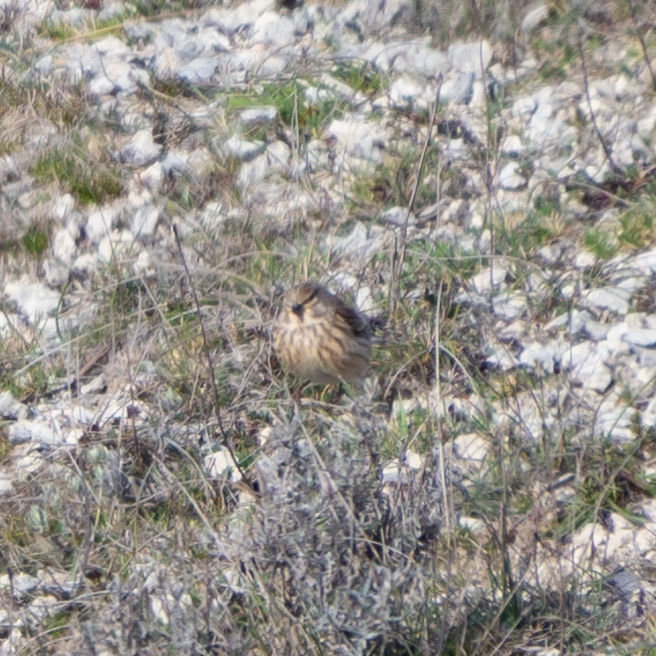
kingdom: Animalia
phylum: Chordata
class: Aves
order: Passeriformes
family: Fringillidae
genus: Linaria
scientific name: Linaria cannabina
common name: Common linnet
